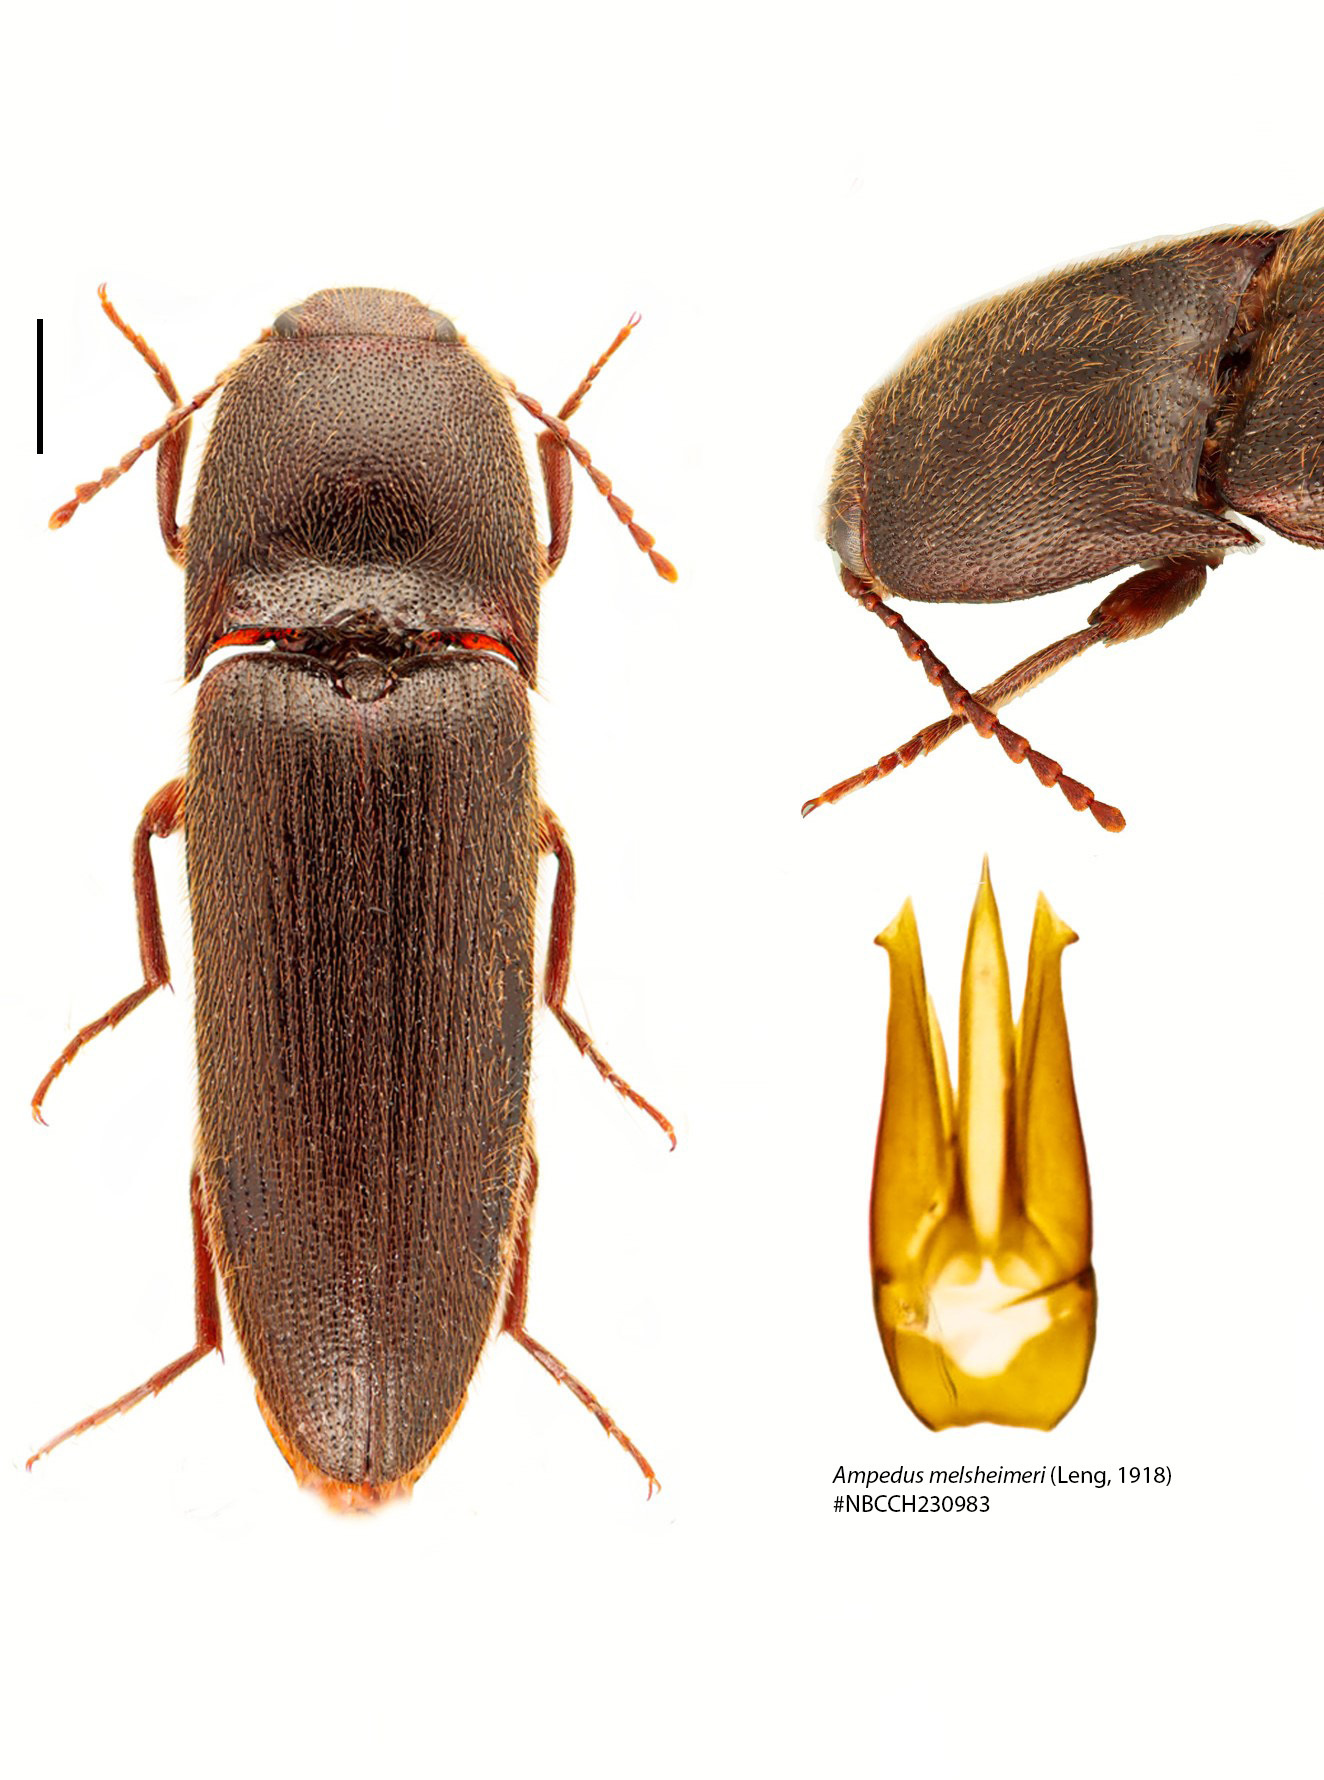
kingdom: Animalia
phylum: Arthropoda
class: Insecta
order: Coleoptera
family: Elateridae
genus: Ampedus
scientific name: Ampedus melsheimeri
